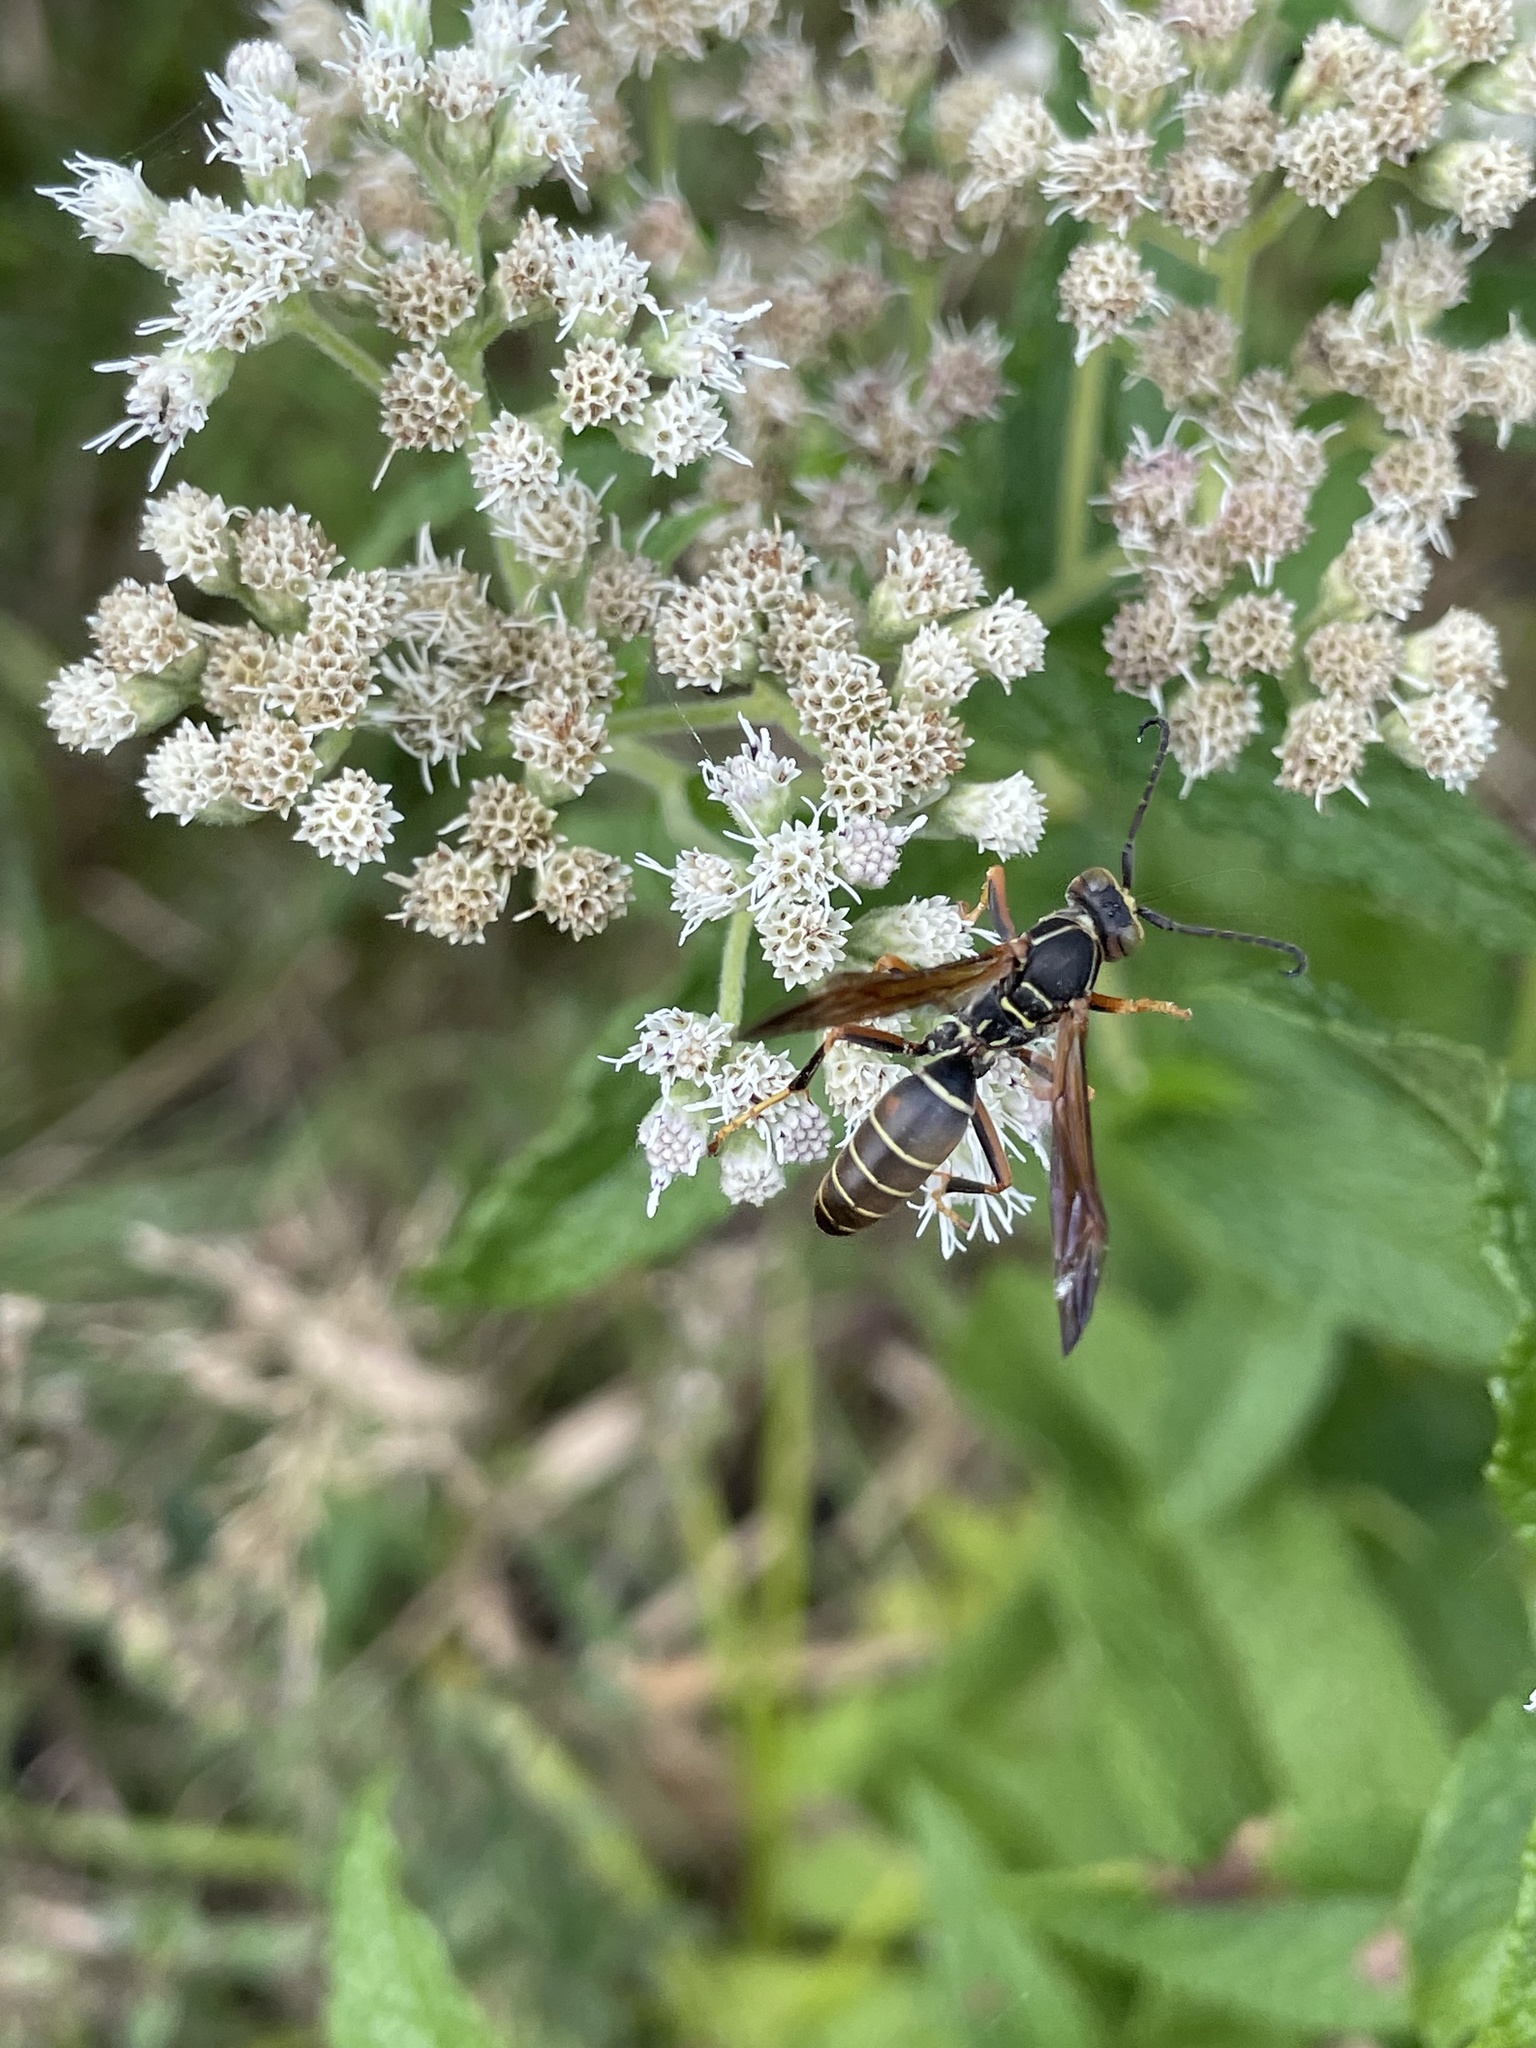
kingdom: Animalia
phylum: Arthropoda
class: Insecta
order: Hymenoptera
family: Eumenidae
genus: Polistes
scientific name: Polistes fuscatus
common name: Dark paper wasp
